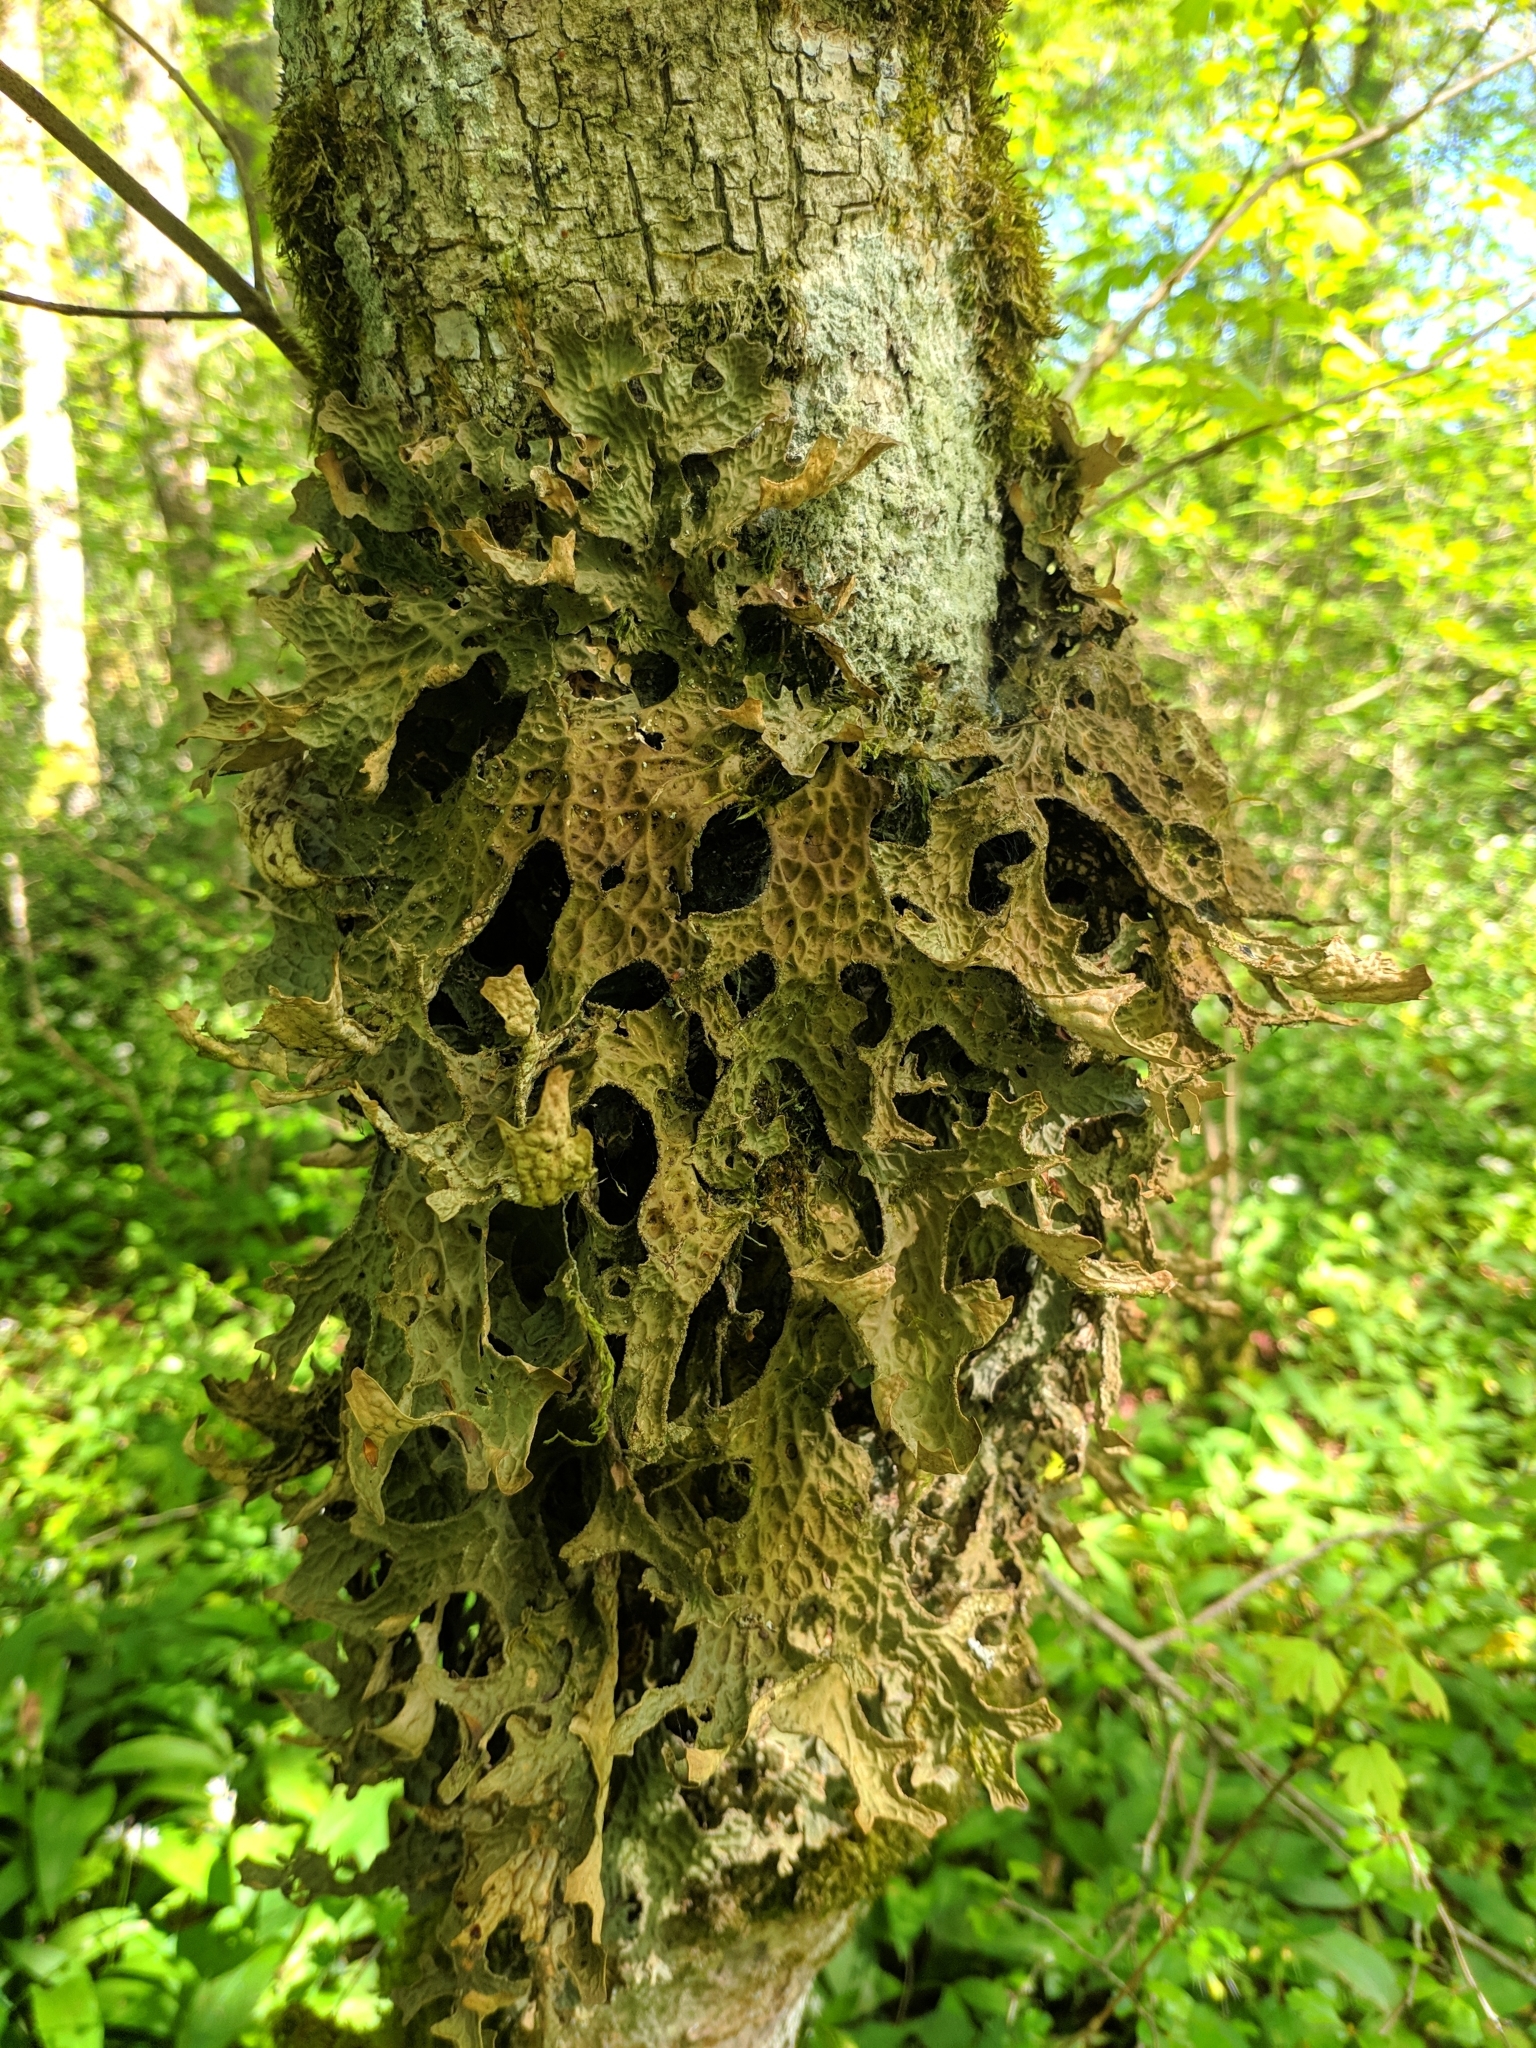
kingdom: Fungi
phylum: Ascomycota
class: Lecanoromycetes
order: Peltigerales
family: Lobariaceae
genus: Lobaria
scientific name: Lobaria pulmonaria
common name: Lungwort
